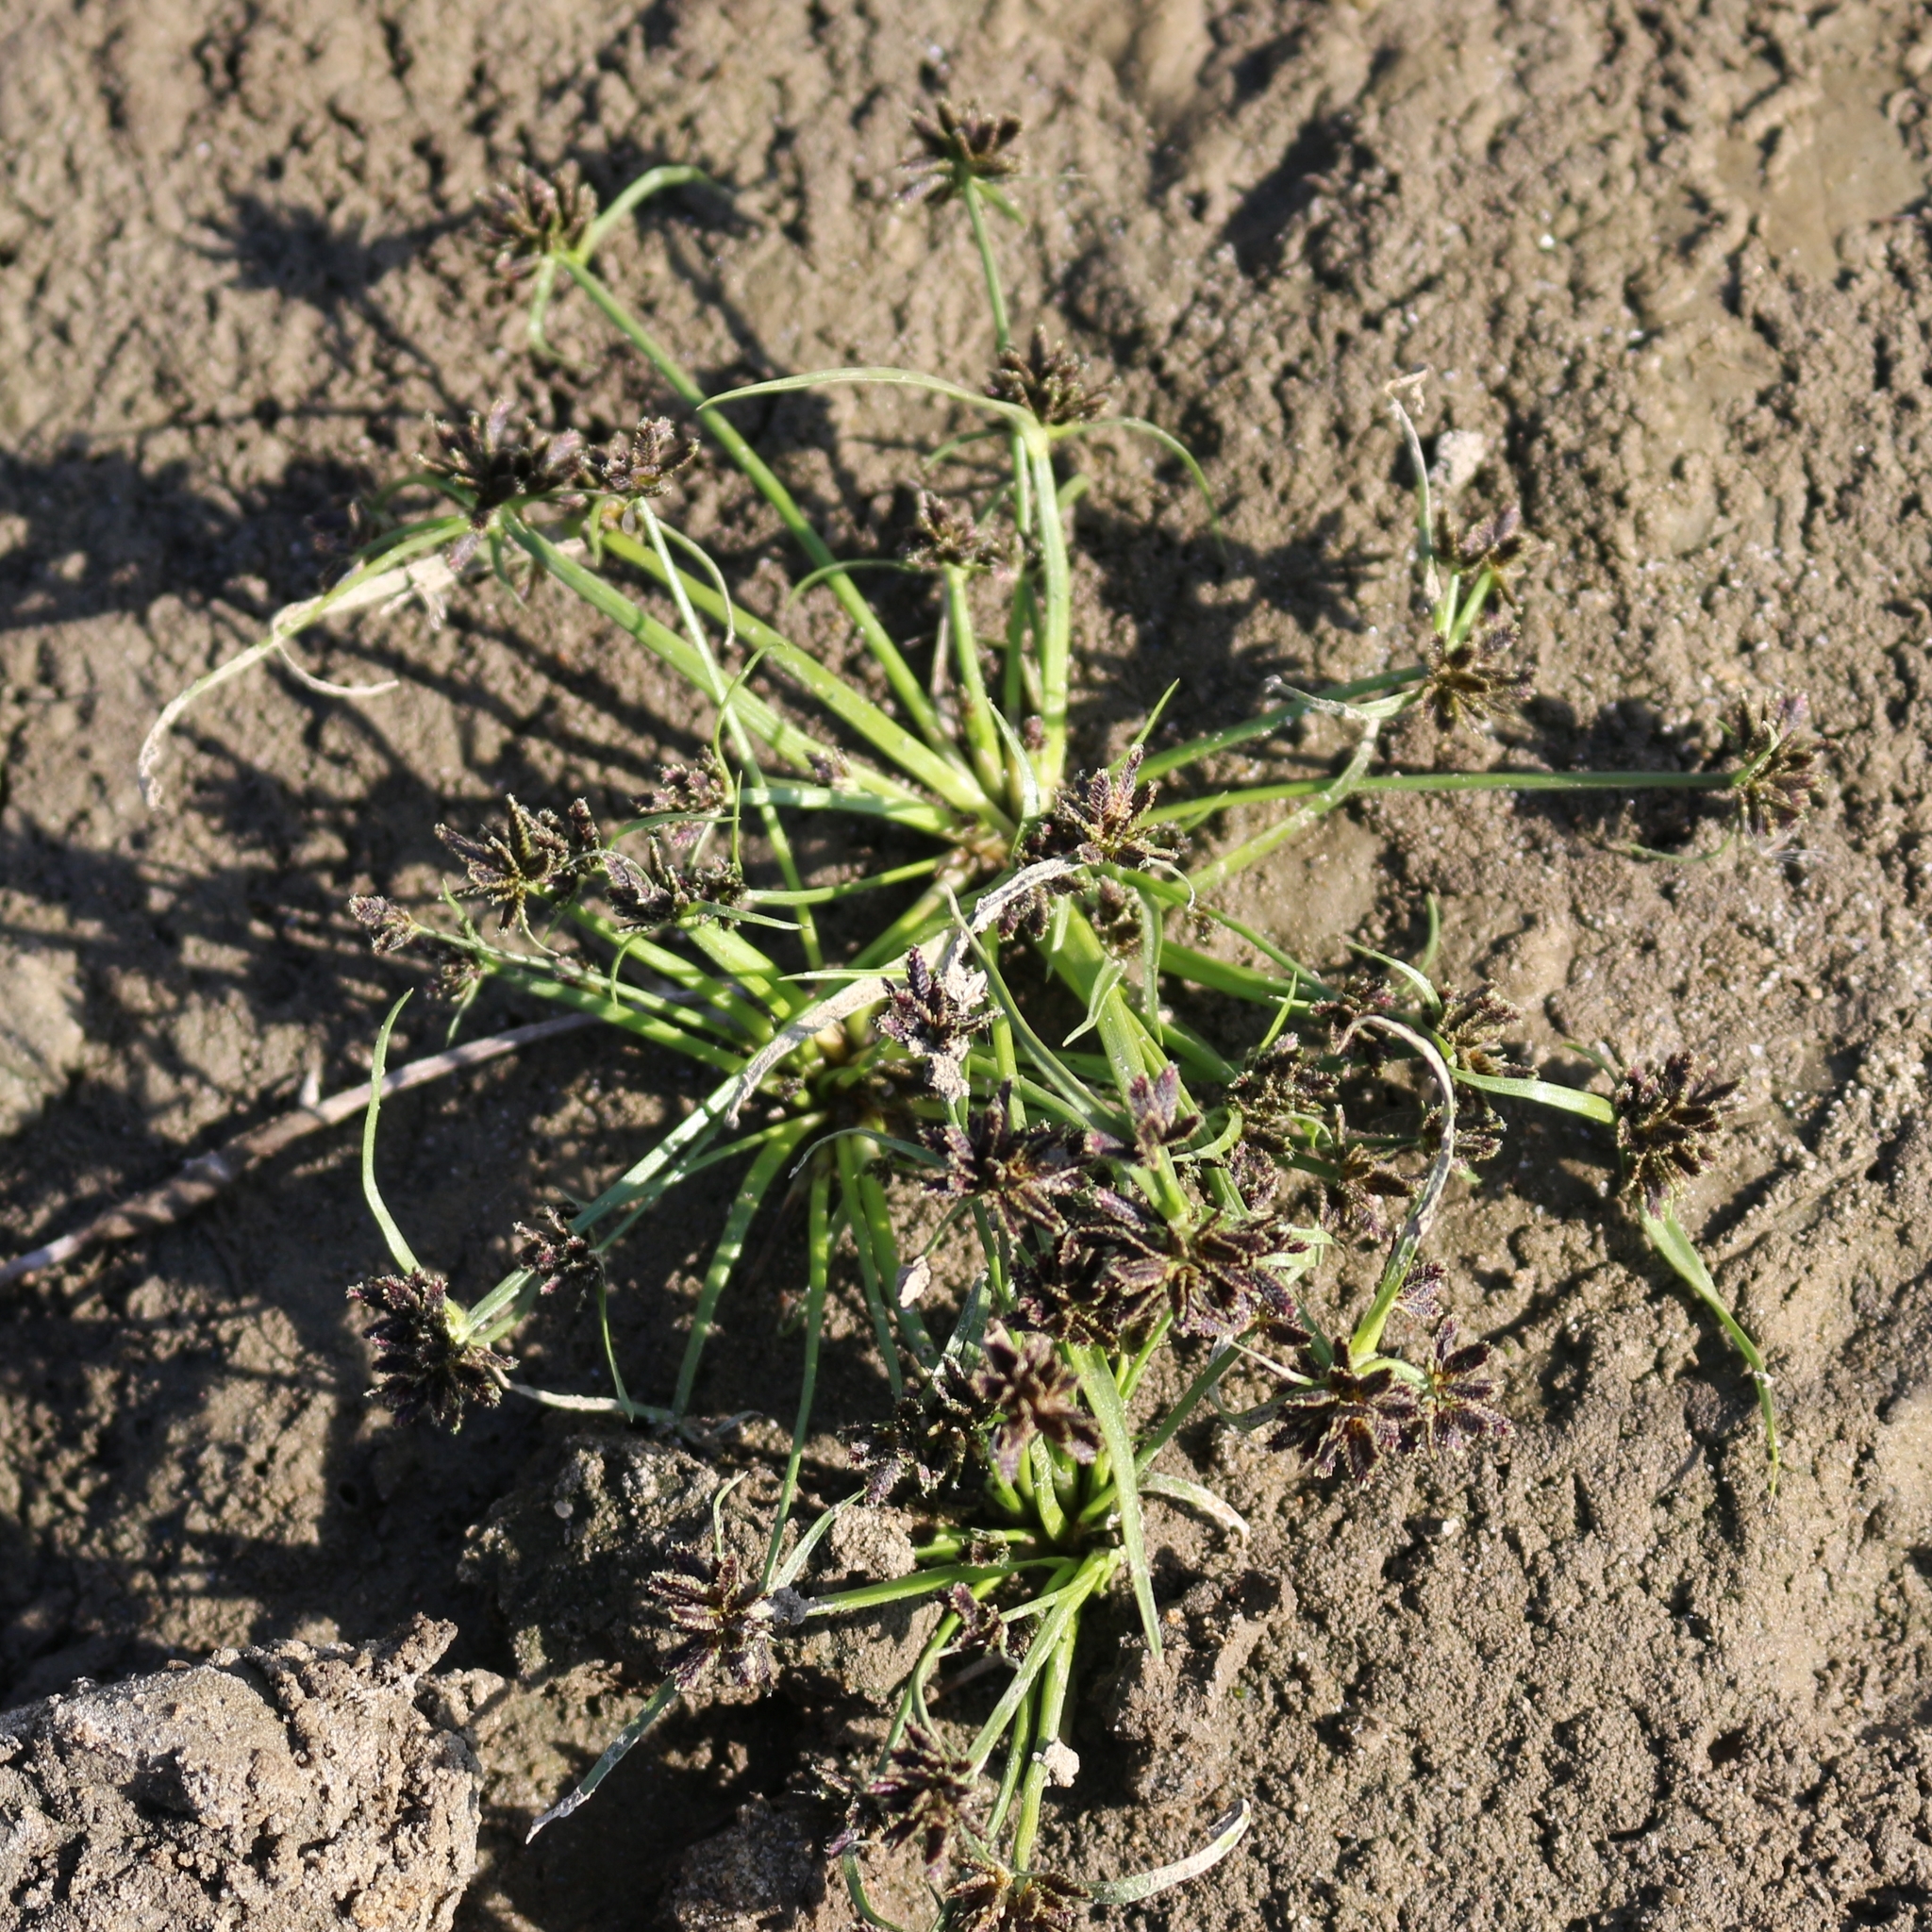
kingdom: Plantae
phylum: Tracheophyta
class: Liliopsida
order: Poales
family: Cyperaceae
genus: Cyperus
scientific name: Cyperus fuscus
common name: Brown galingale
